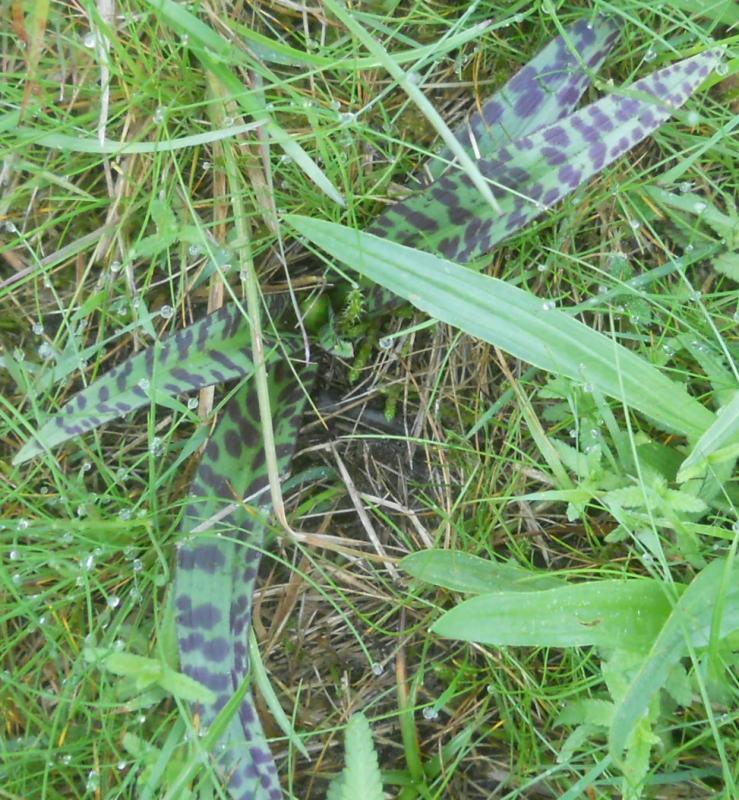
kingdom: Plantae
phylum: Tracheophyta
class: Liliopsida
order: Asparagales
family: Orchidaceae
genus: Dactylorhiza
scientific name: Dactylorhiza maculata
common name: Heath spotted-orchid
